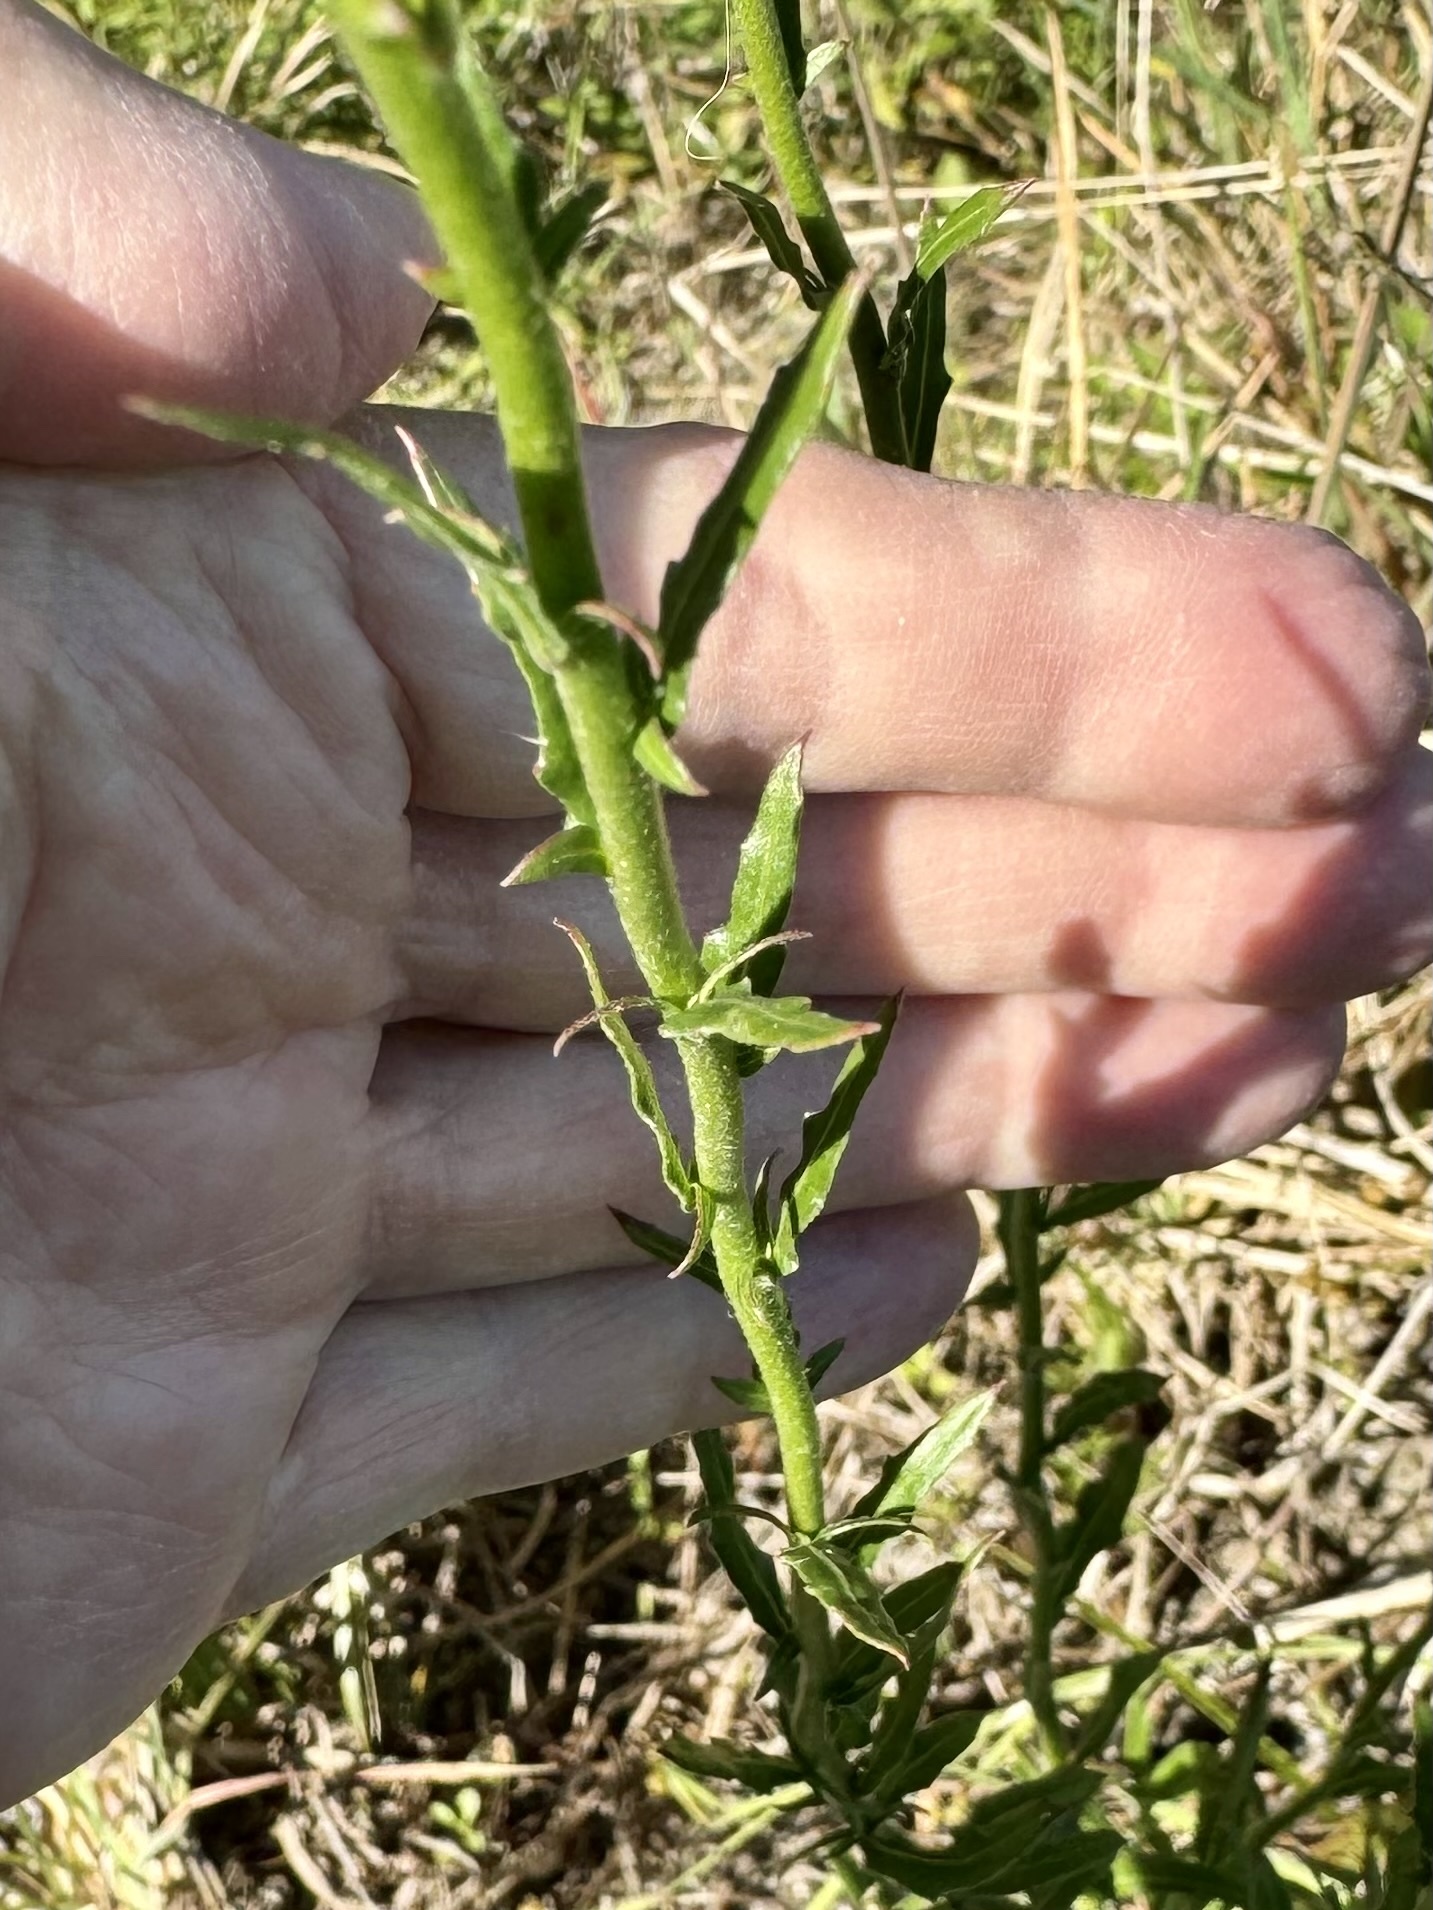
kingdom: Plantae
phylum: Tracheophyta
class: Magnoliopsida
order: Myrtales
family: Onagraceae
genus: Oenothera
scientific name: Oenothera simulans
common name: Southern beeblossom
